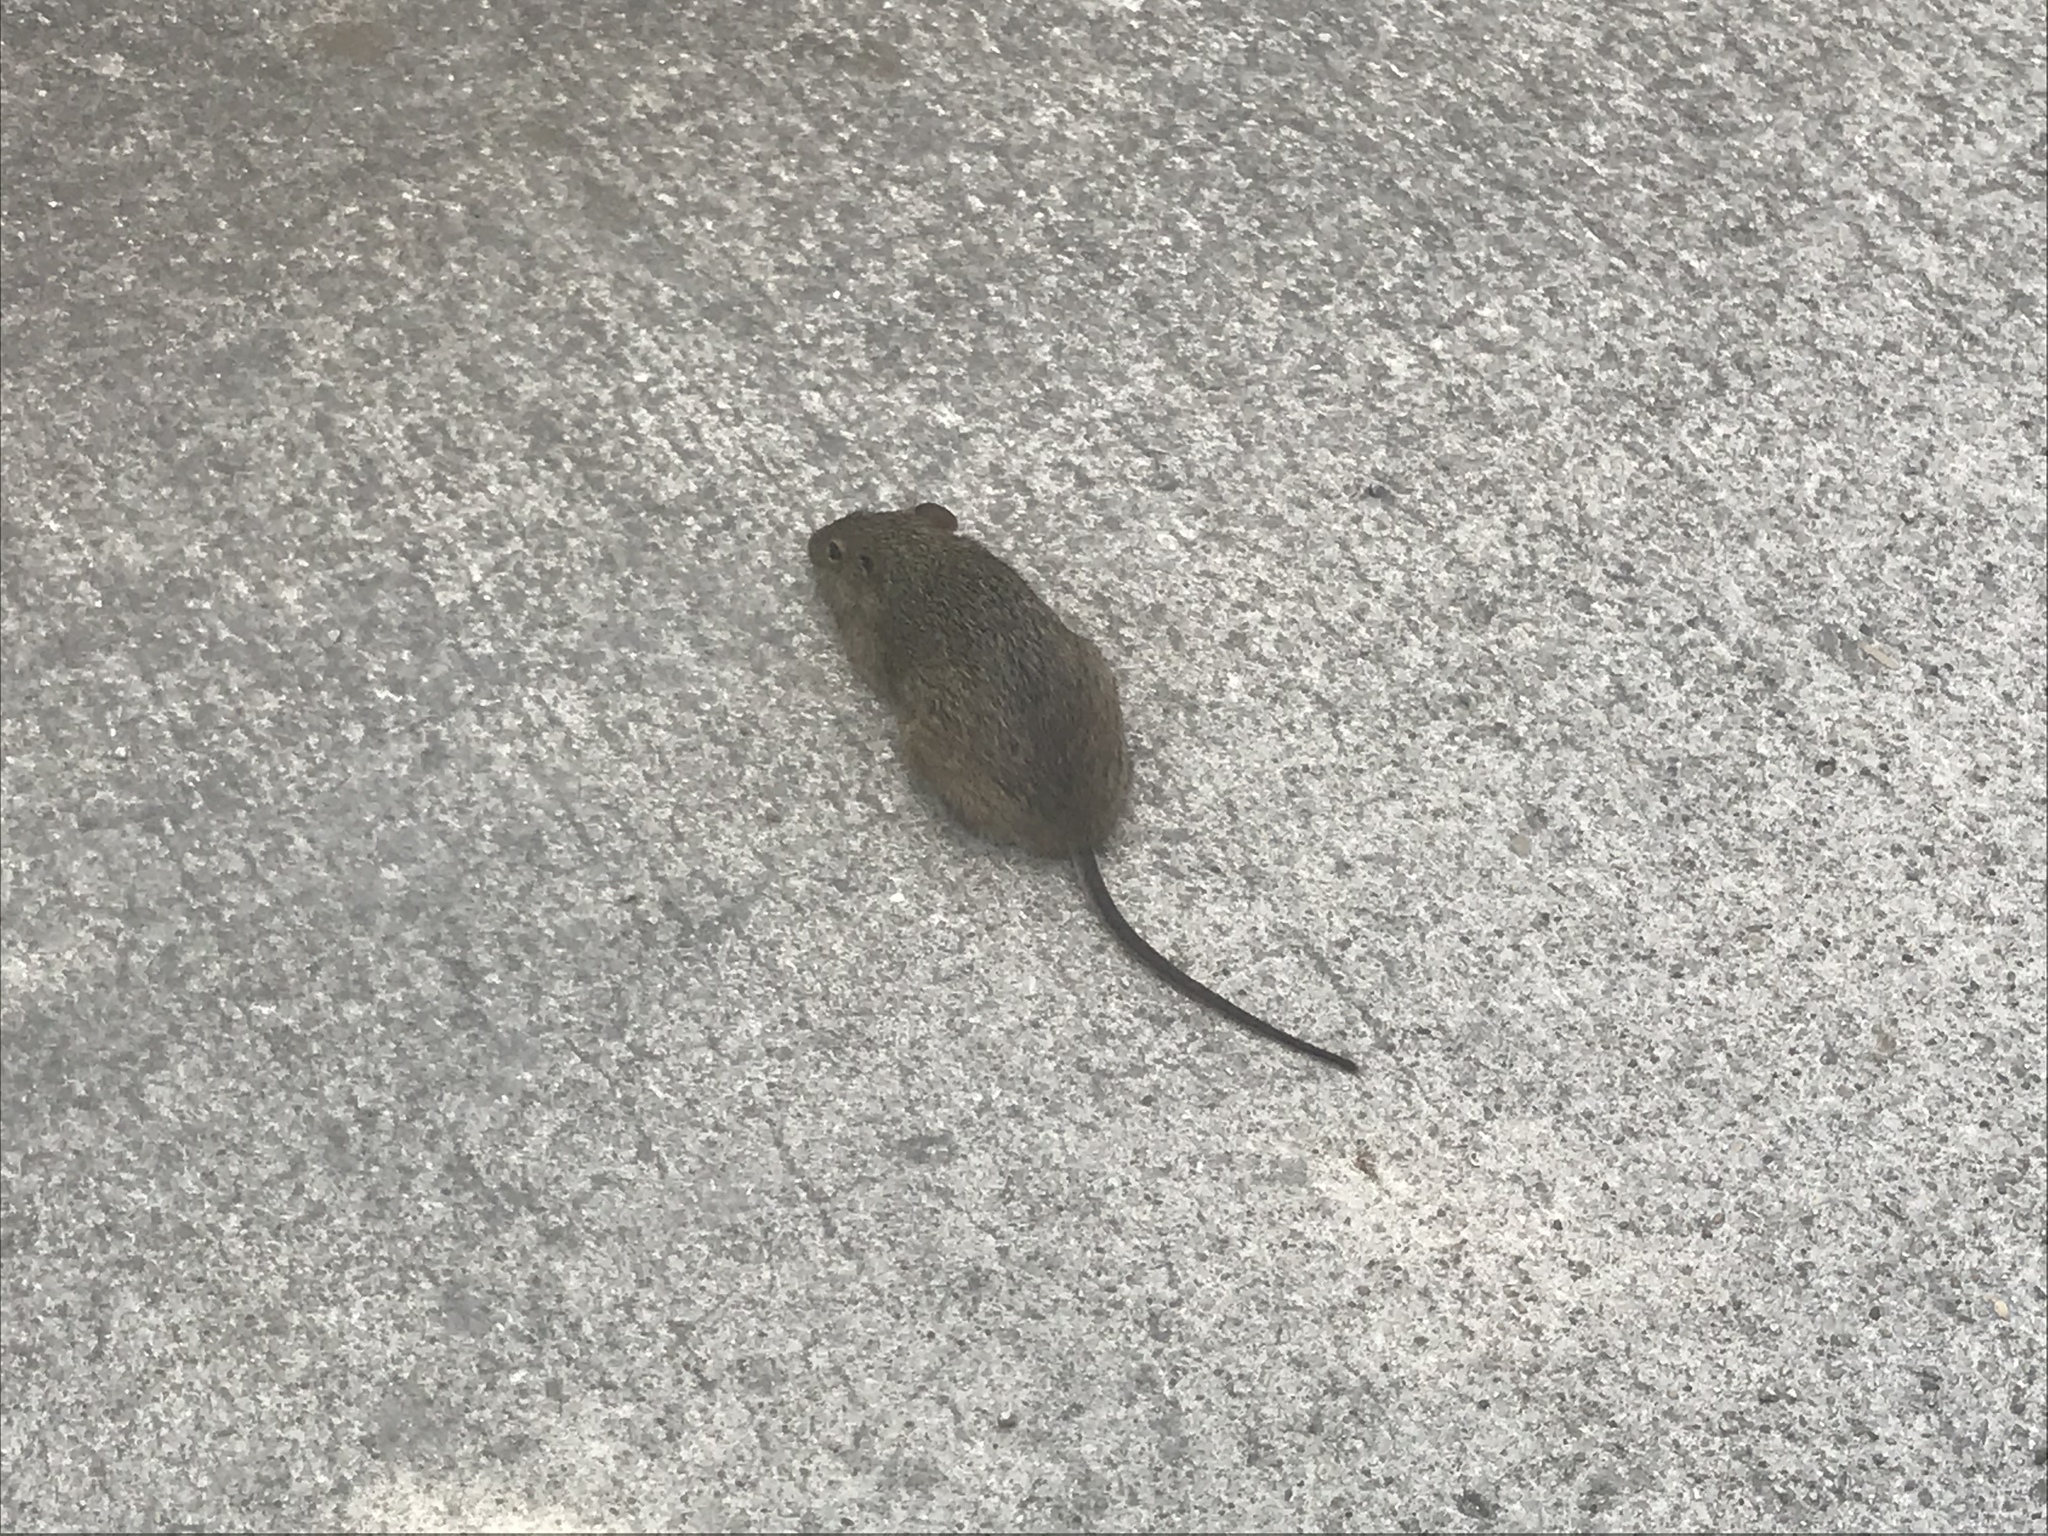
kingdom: Animalia
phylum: Chordata
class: Mammalia
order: Rodentia
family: Cricetidae
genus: Sigmodon
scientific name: Sigmodon hispidus
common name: Hispid cotton rat
